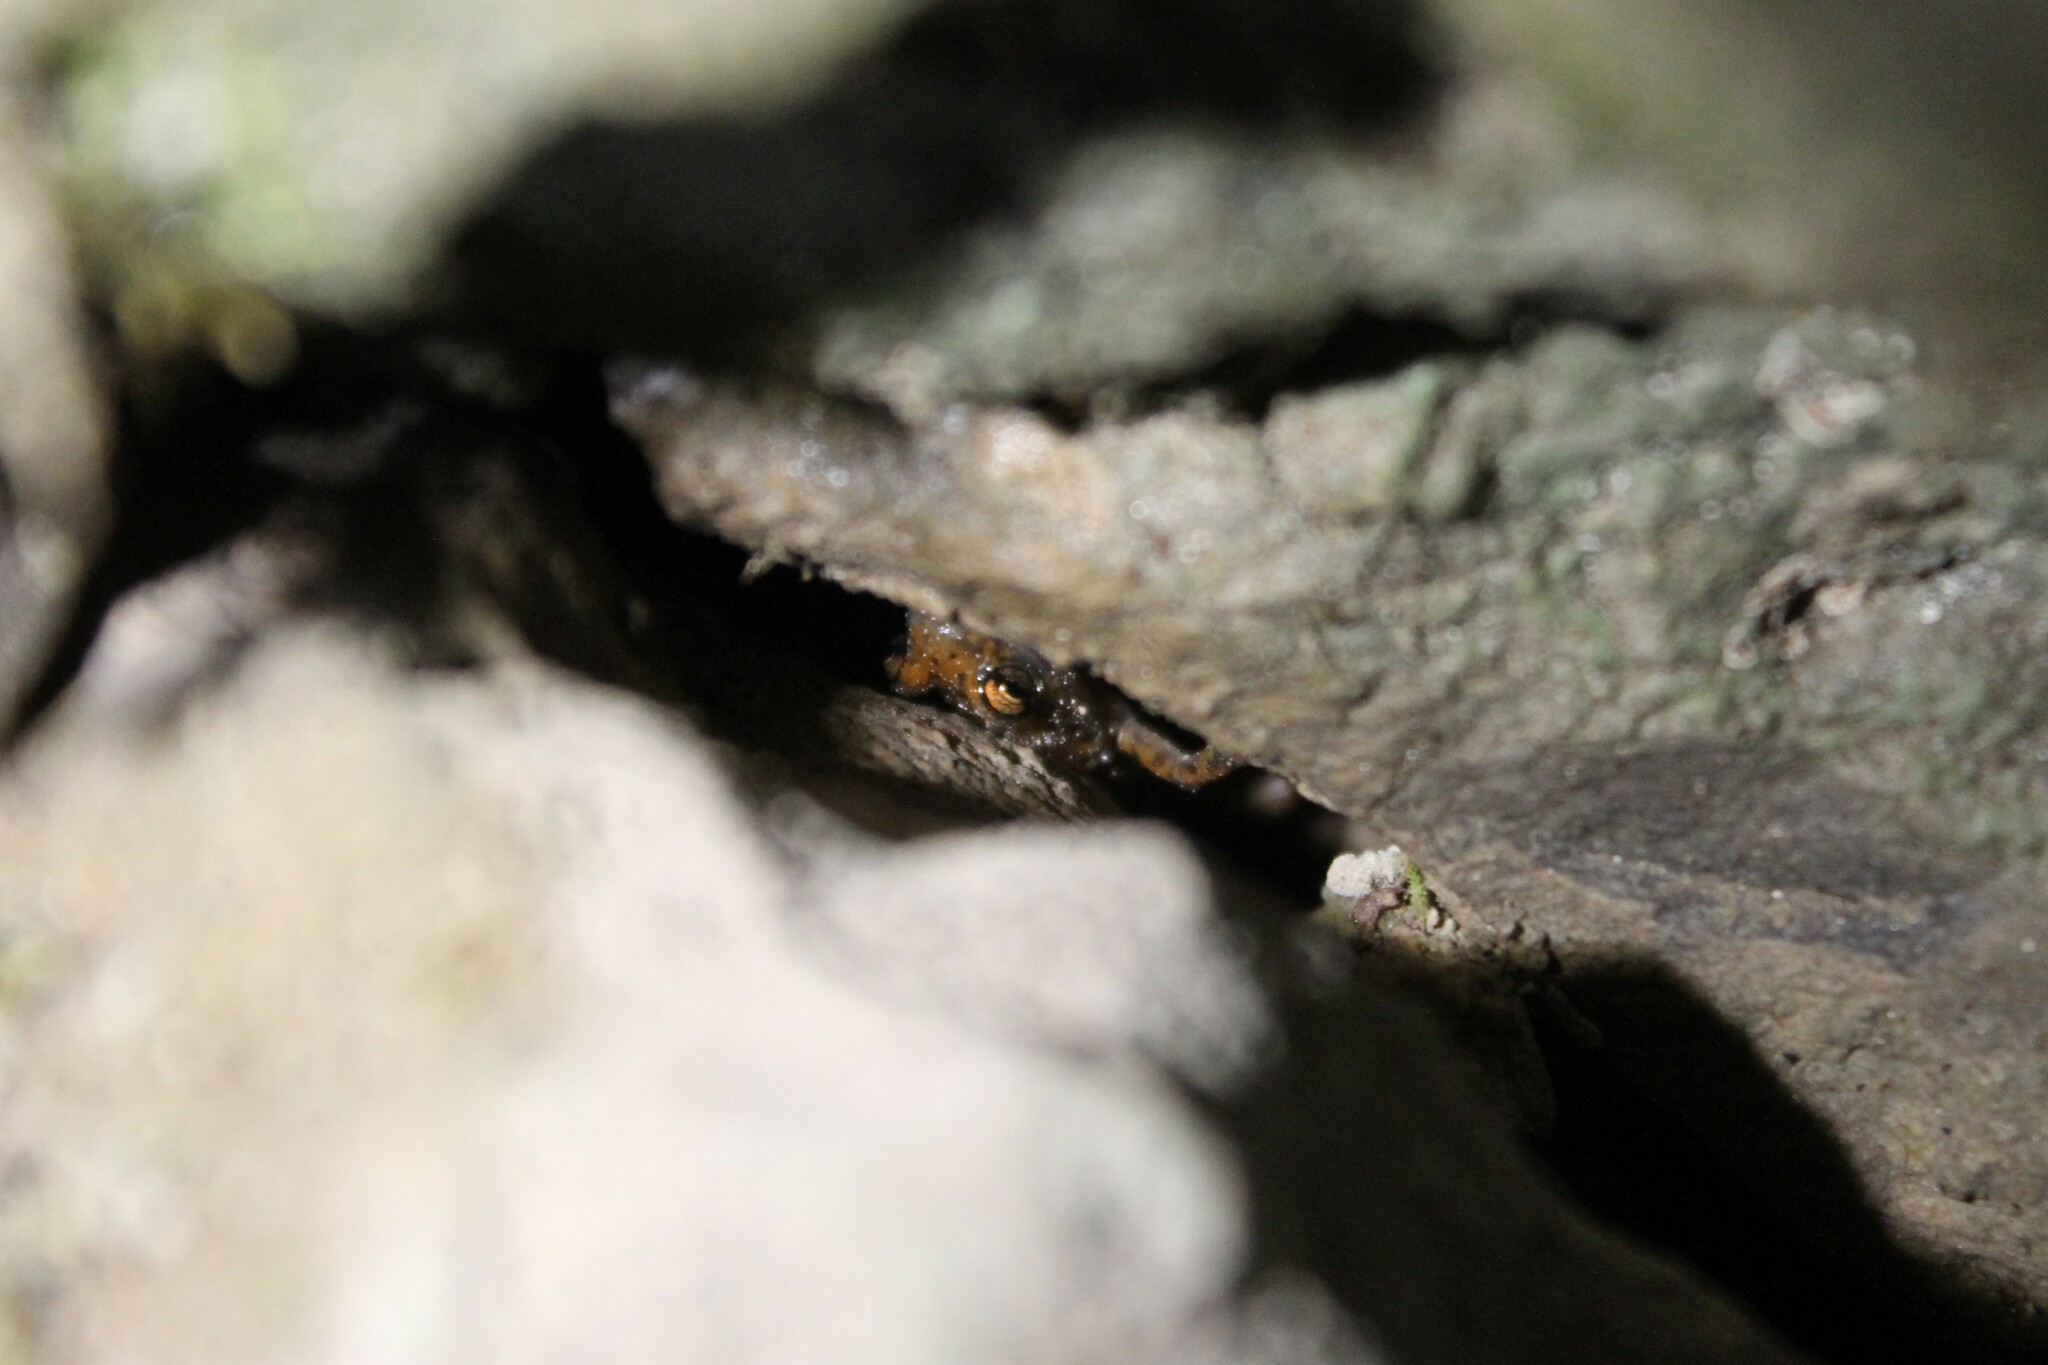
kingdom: Animalia
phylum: Chordata
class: Amphibia
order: Caudata
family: Plethodontidae
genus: Eurycea
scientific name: Eurycea lucifuga
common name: Cave salamander
